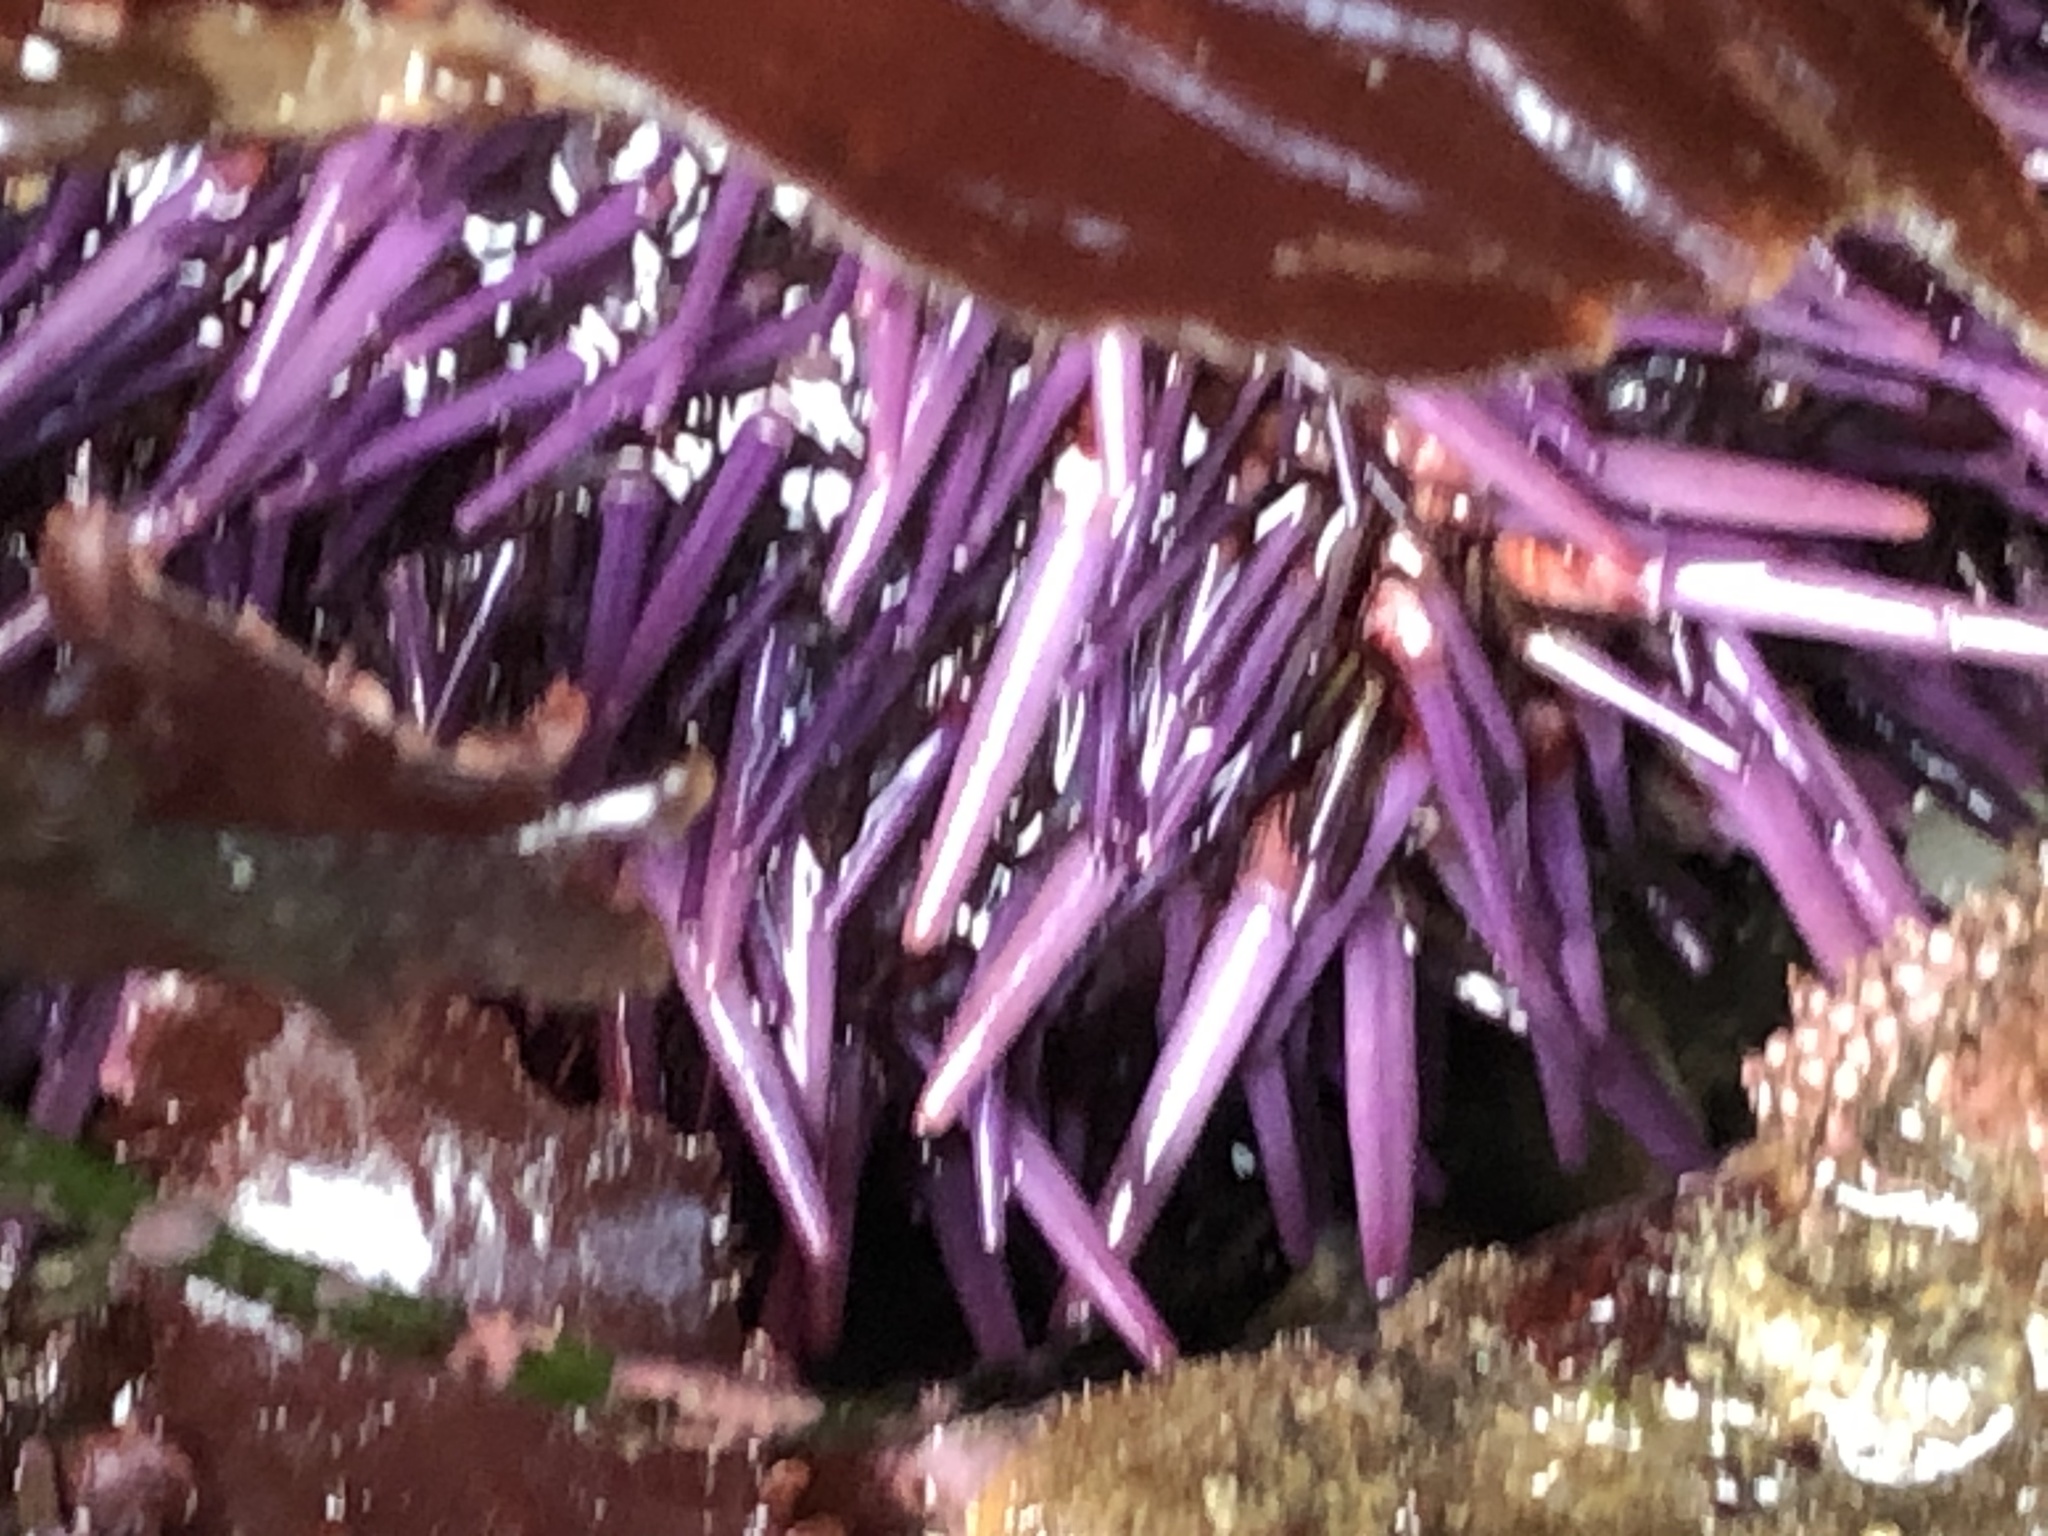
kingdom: Animalia
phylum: Echinodermata
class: Echinoidea
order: Camarodonta
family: Strongylocentrotidae
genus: Strongylocentrotus
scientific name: Strongylocentrotus purpuratus
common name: Purple sea urchin
